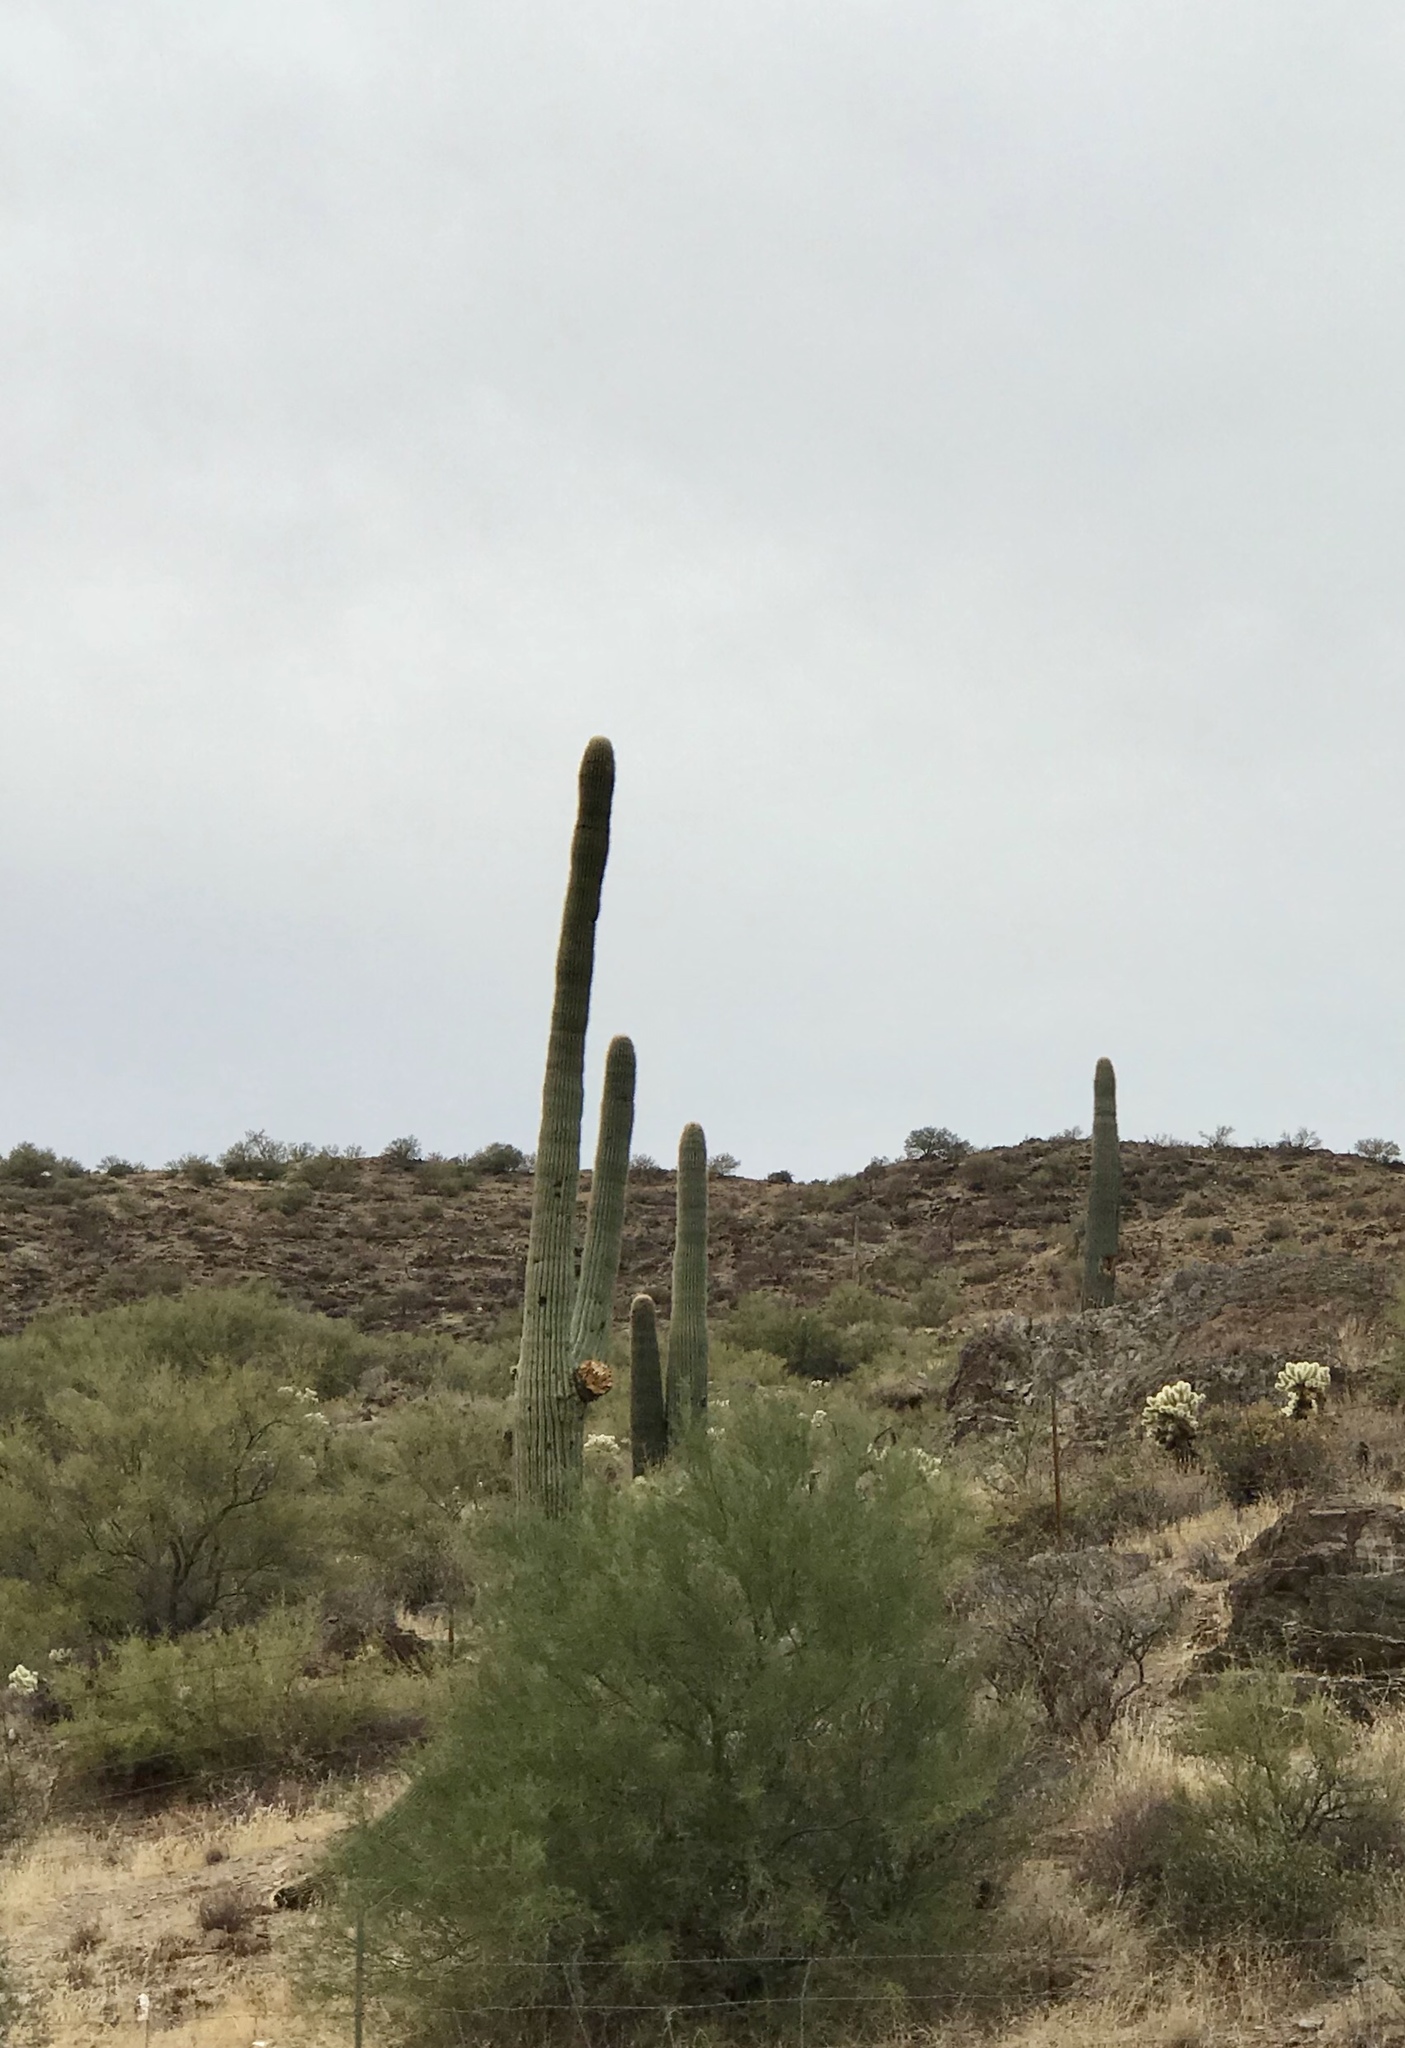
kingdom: Plantae
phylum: Tracheophyta
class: Magnoliopsida
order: Caryophyllales
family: Cactaceae
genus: Carnegiea
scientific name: Carnegiea gigantea
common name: Saguaro
